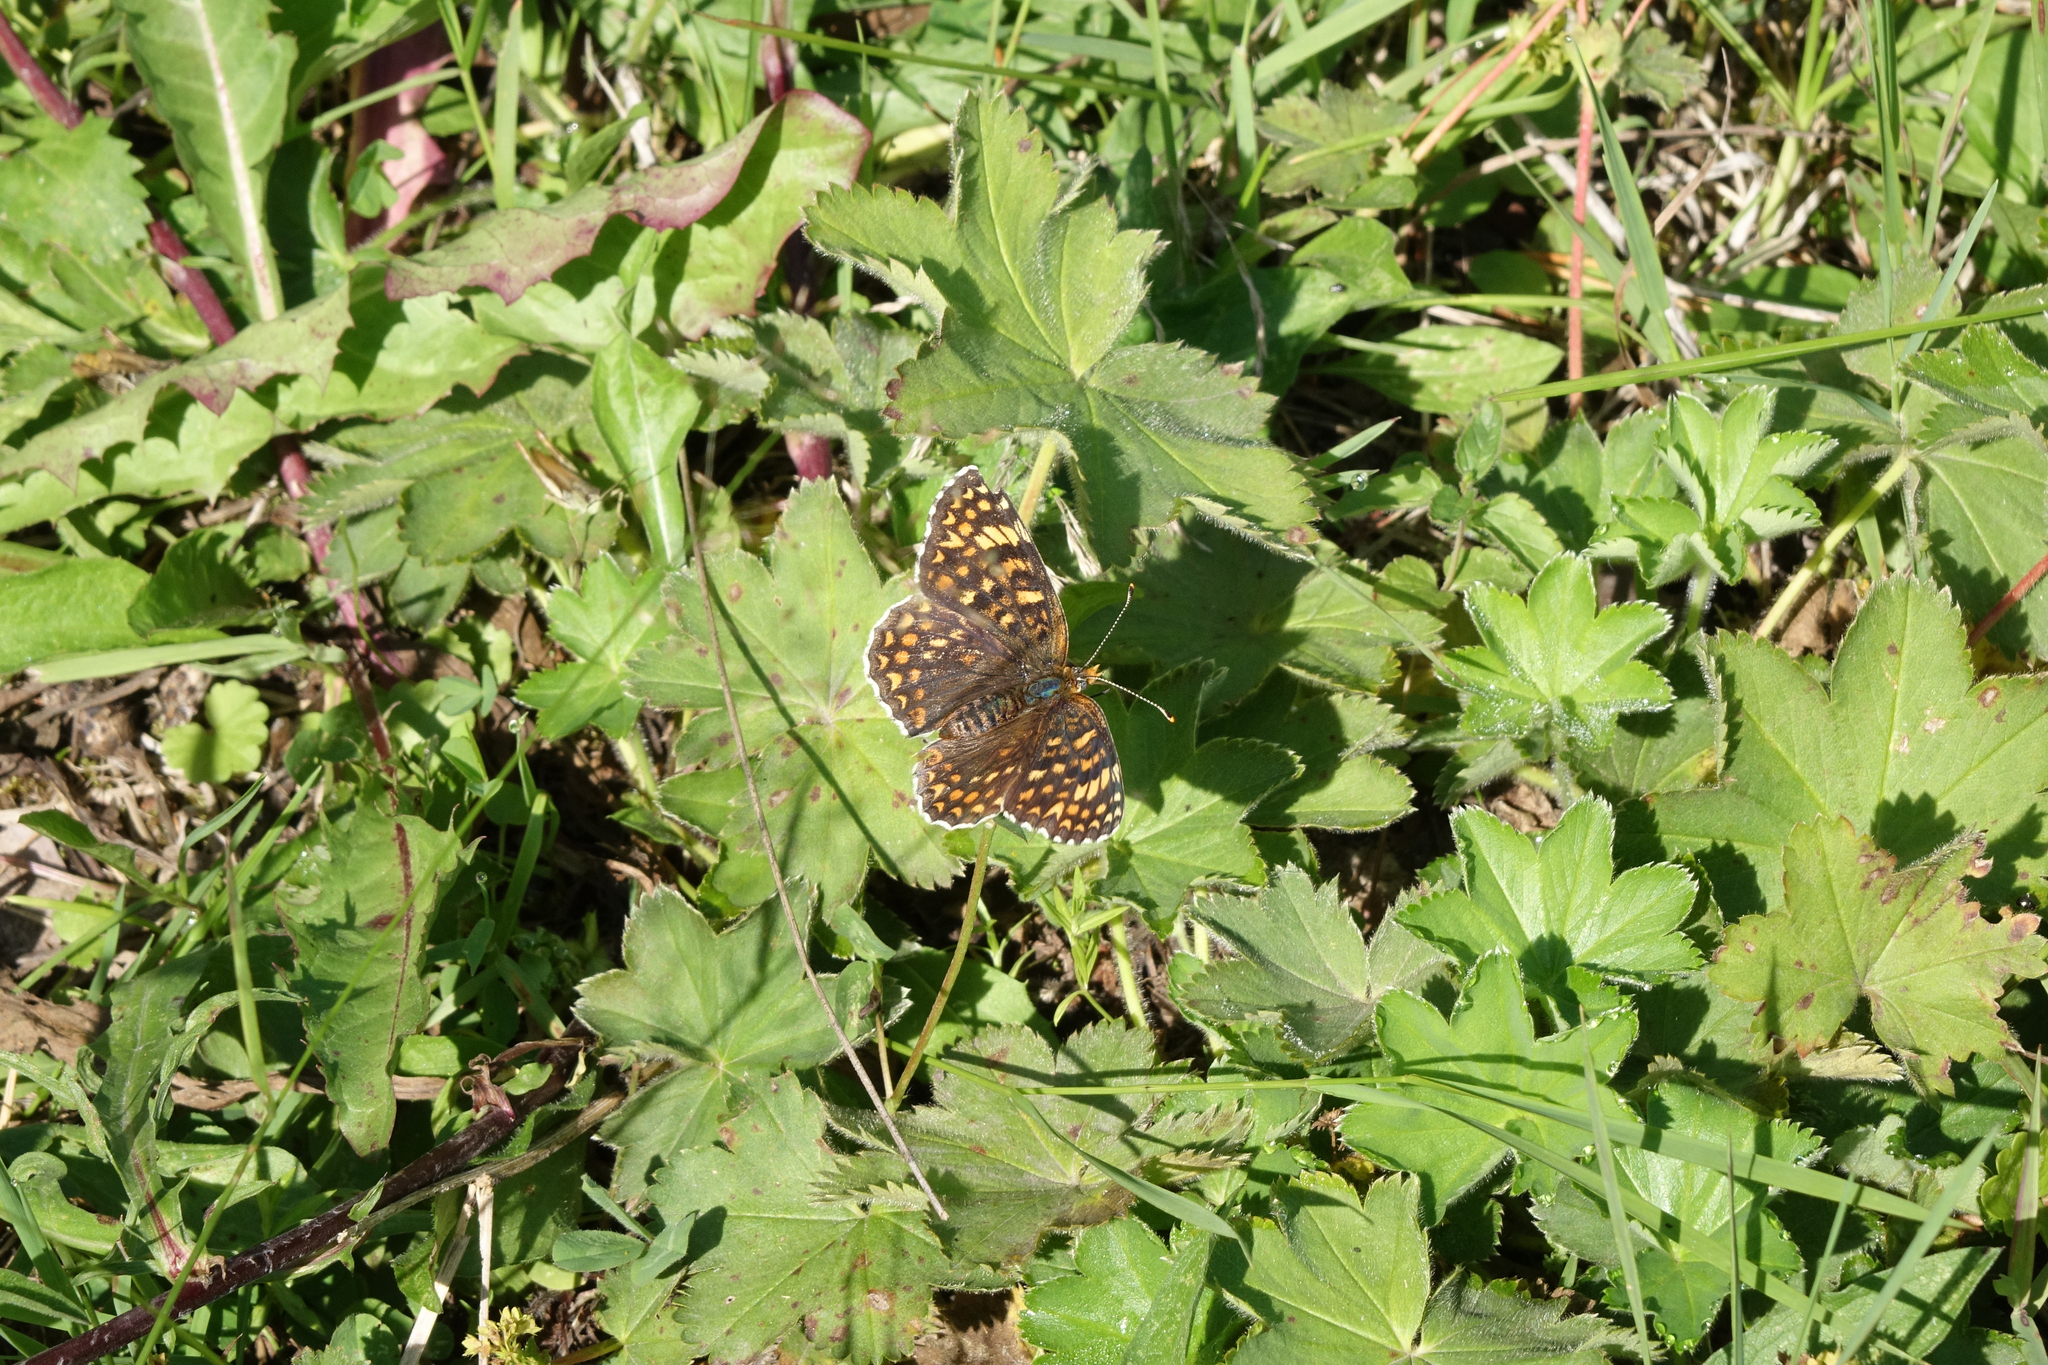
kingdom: Animalia
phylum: Arthropoda
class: Insecta
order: Lepidoptera
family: Nymphalidae
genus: Melitaea
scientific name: Melitaea phoebe
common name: Knapweed fritillary
